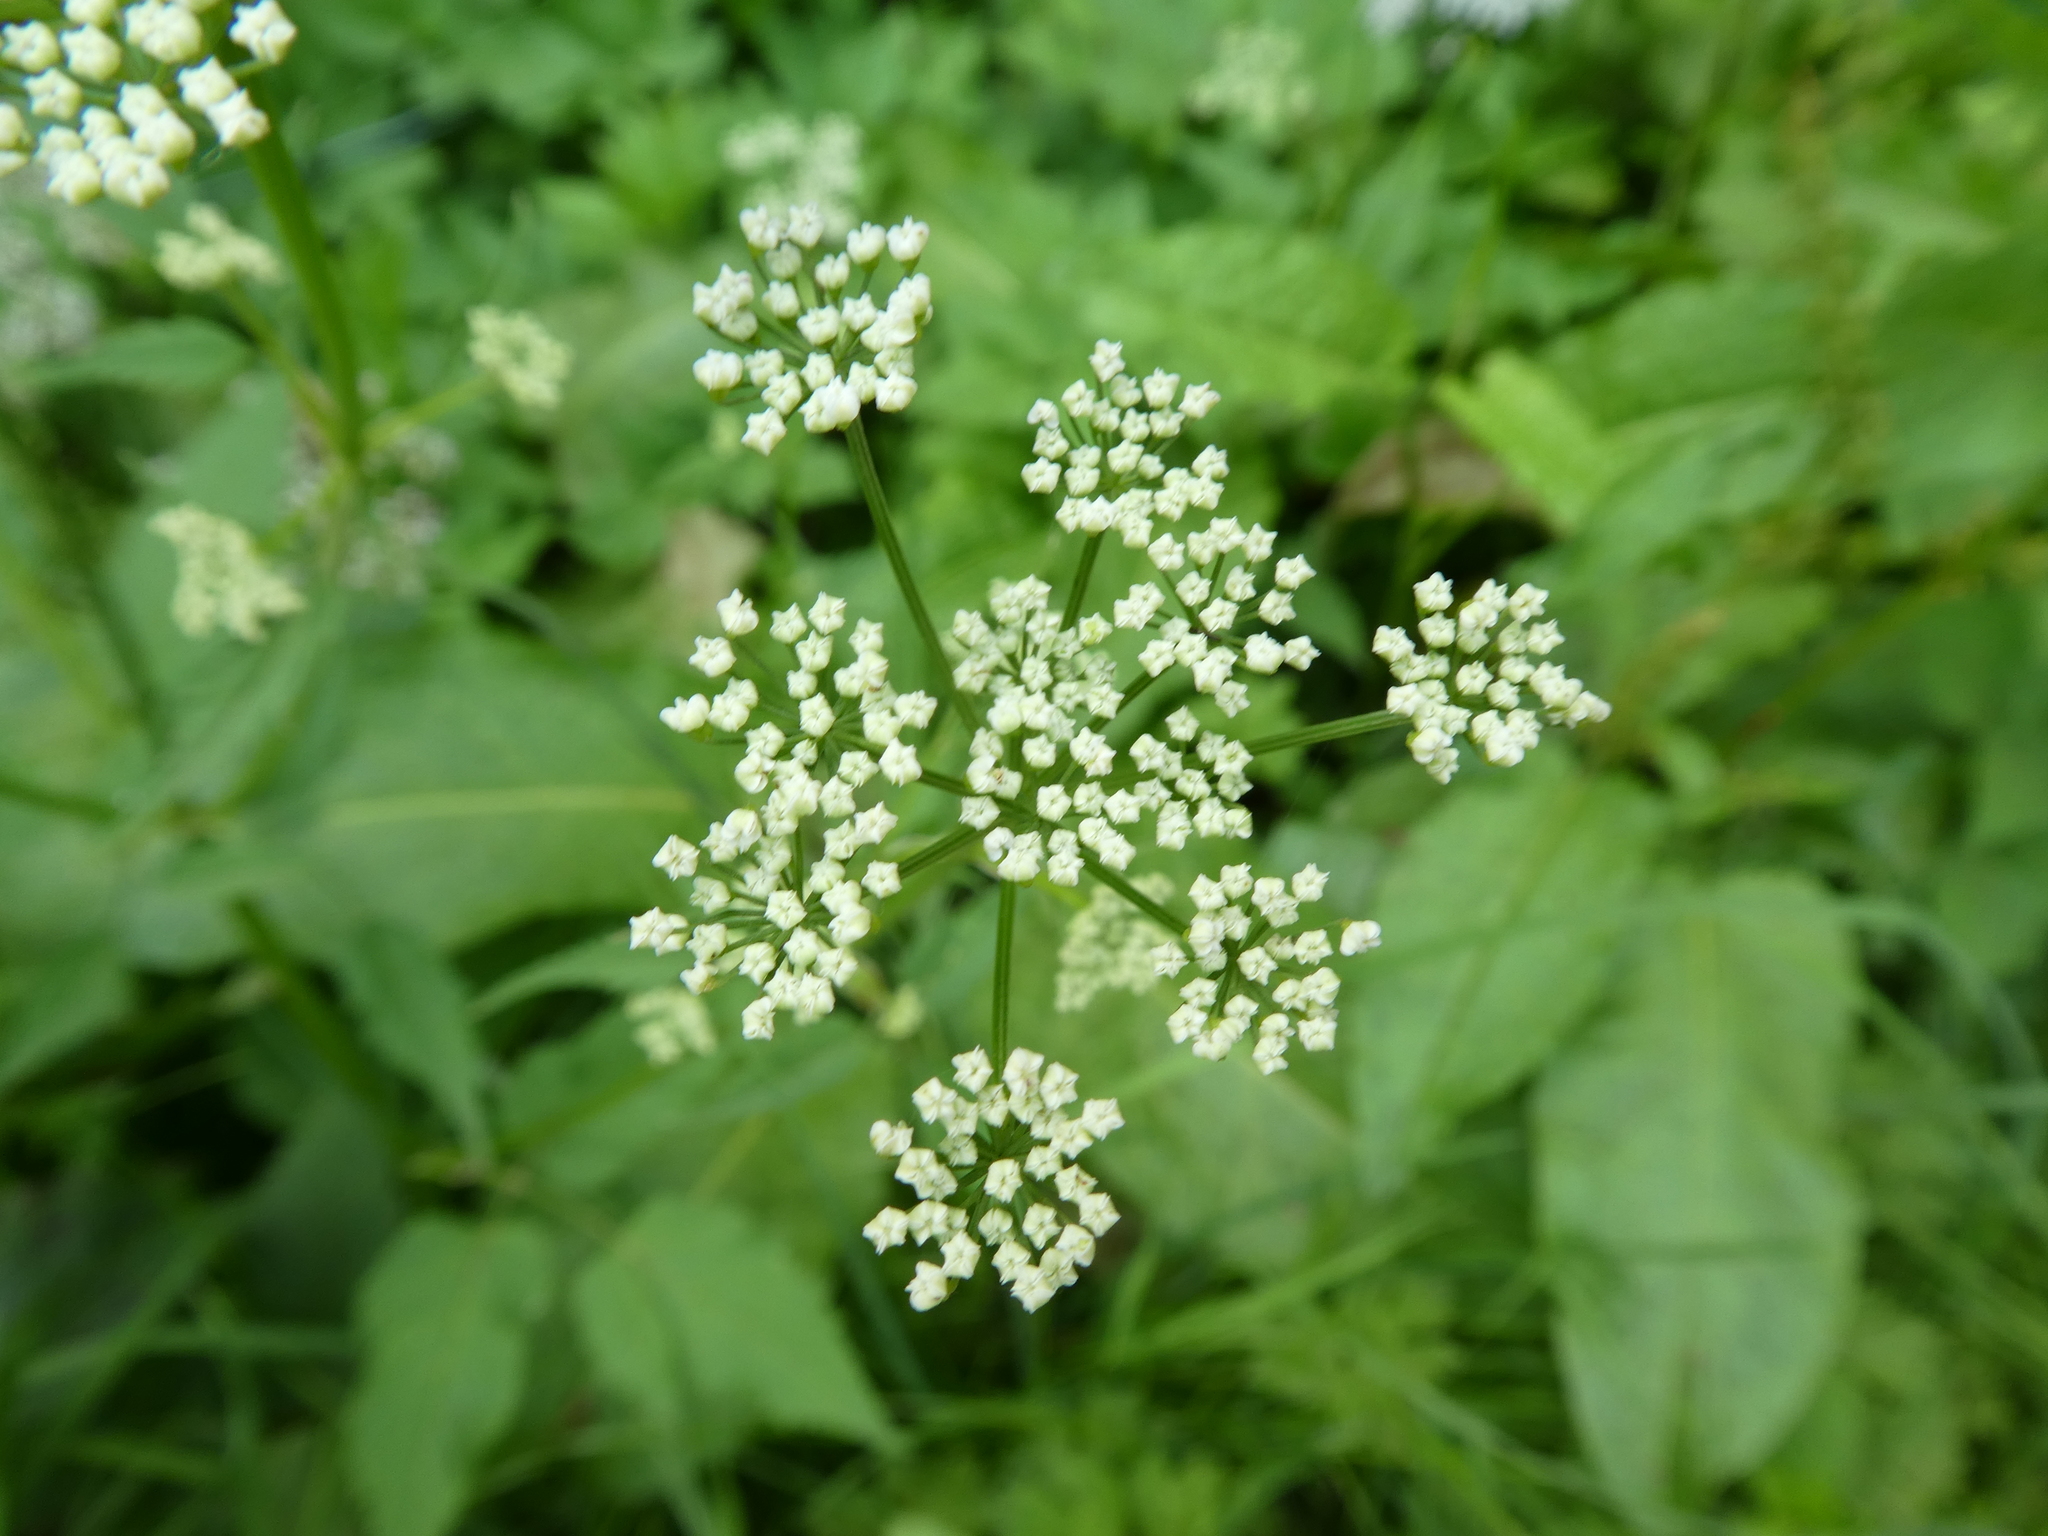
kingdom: Plantae
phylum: Tracheophyta
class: Magnoliopsida
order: Apiales
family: Apiaceae
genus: Aegopodium
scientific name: Aegopodium podagraria
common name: Ground-elder
